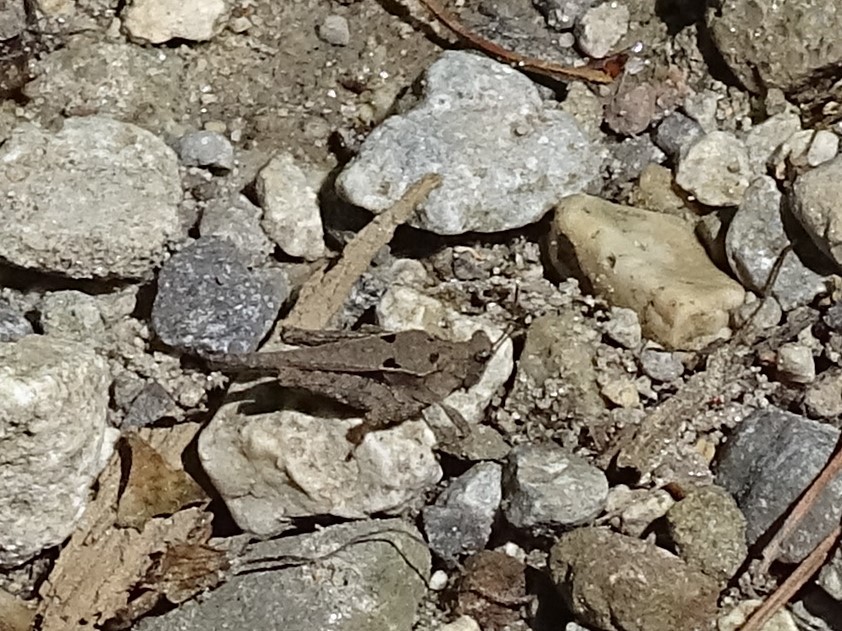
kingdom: Animalia
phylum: Arthropoda
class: Insecta
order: Orthoptera
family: Tetrigidae
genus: Tetrix
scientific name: Tetrix arenosa
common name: Ornate pygmy grasshopper
